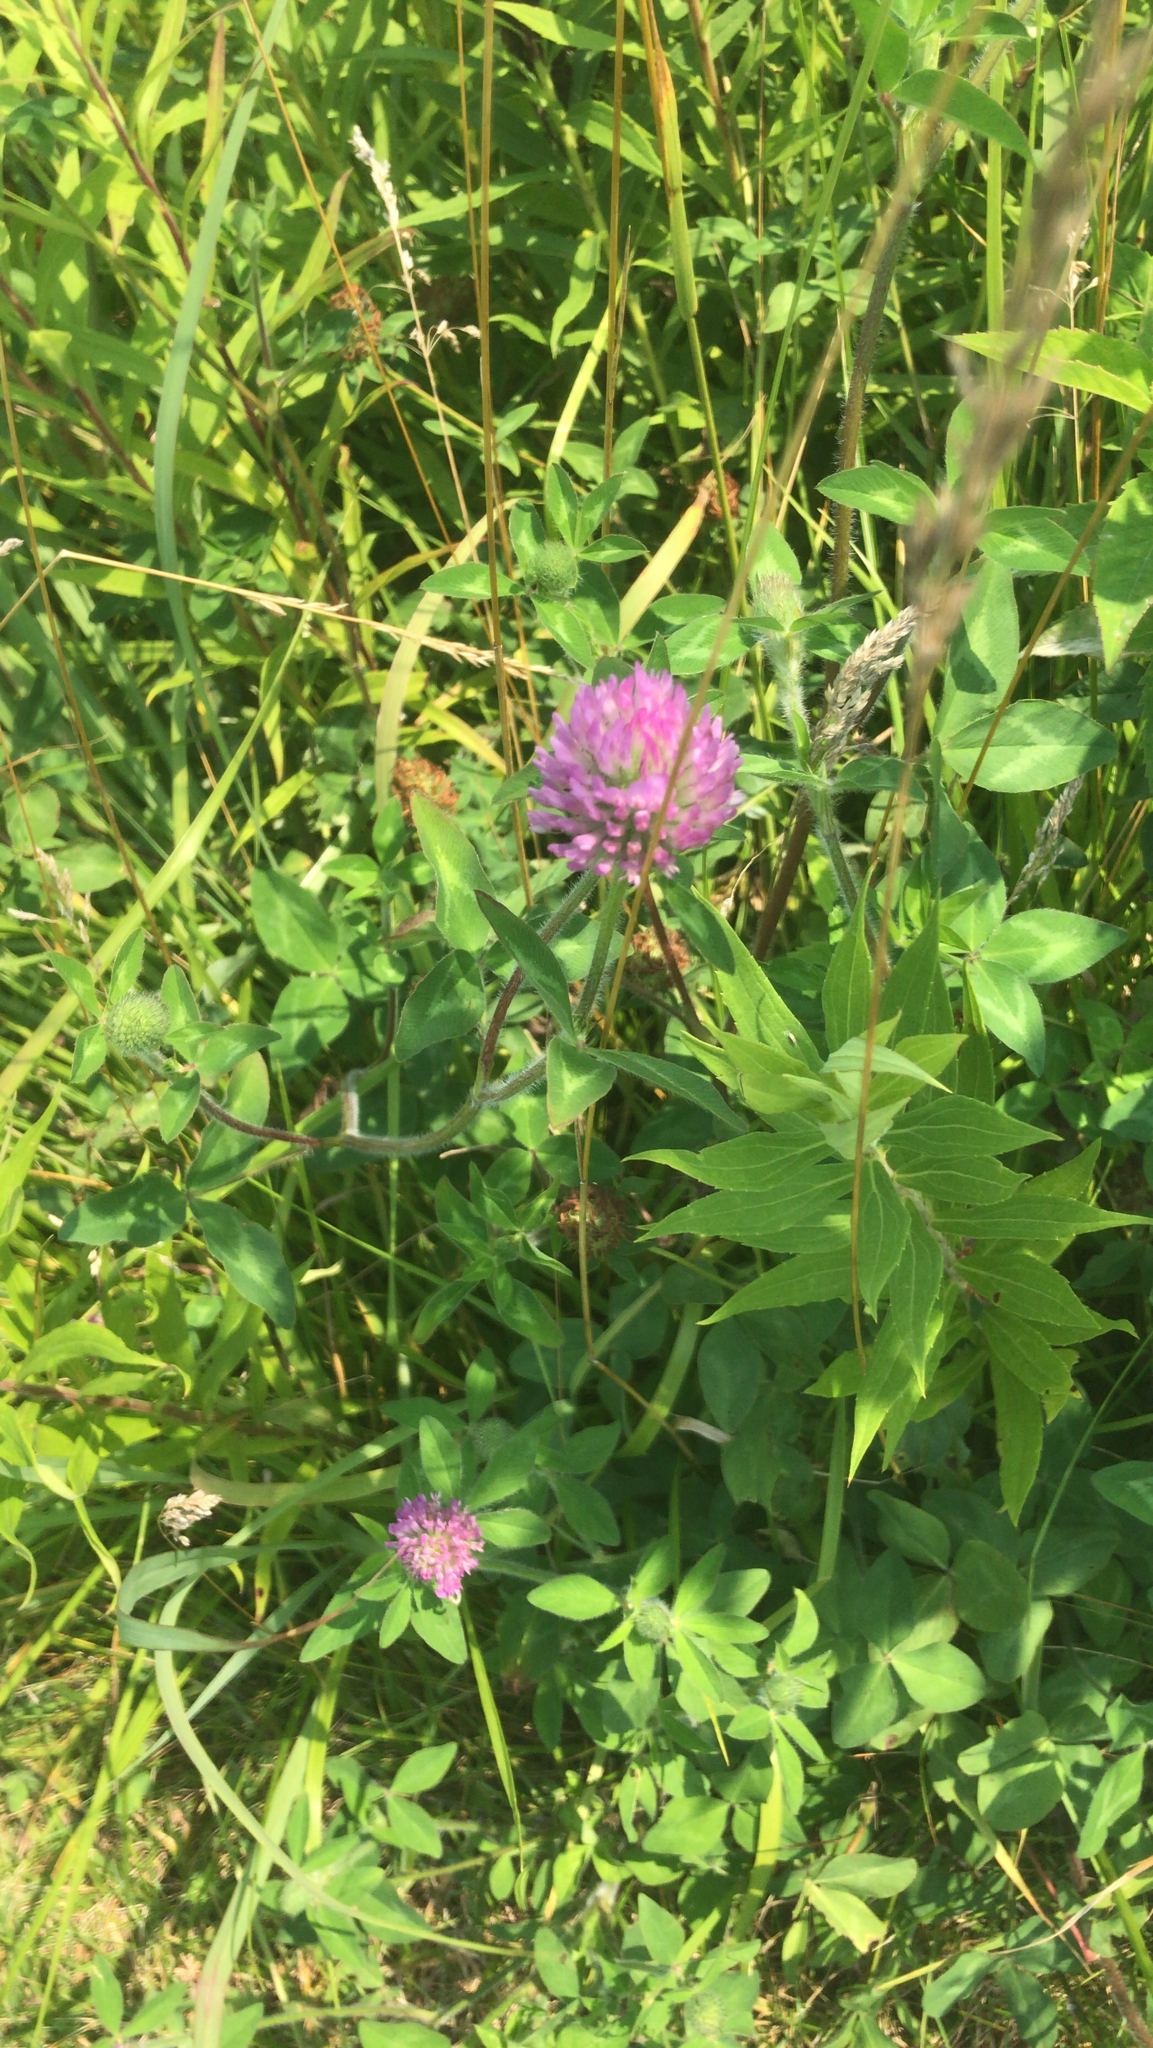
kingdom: Plantae
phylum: Tracheophyta
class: Magnoliopsida
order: Fabales
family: Fabaceae
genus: Trifolium
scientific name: Trifolium pratense
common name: Red clover
